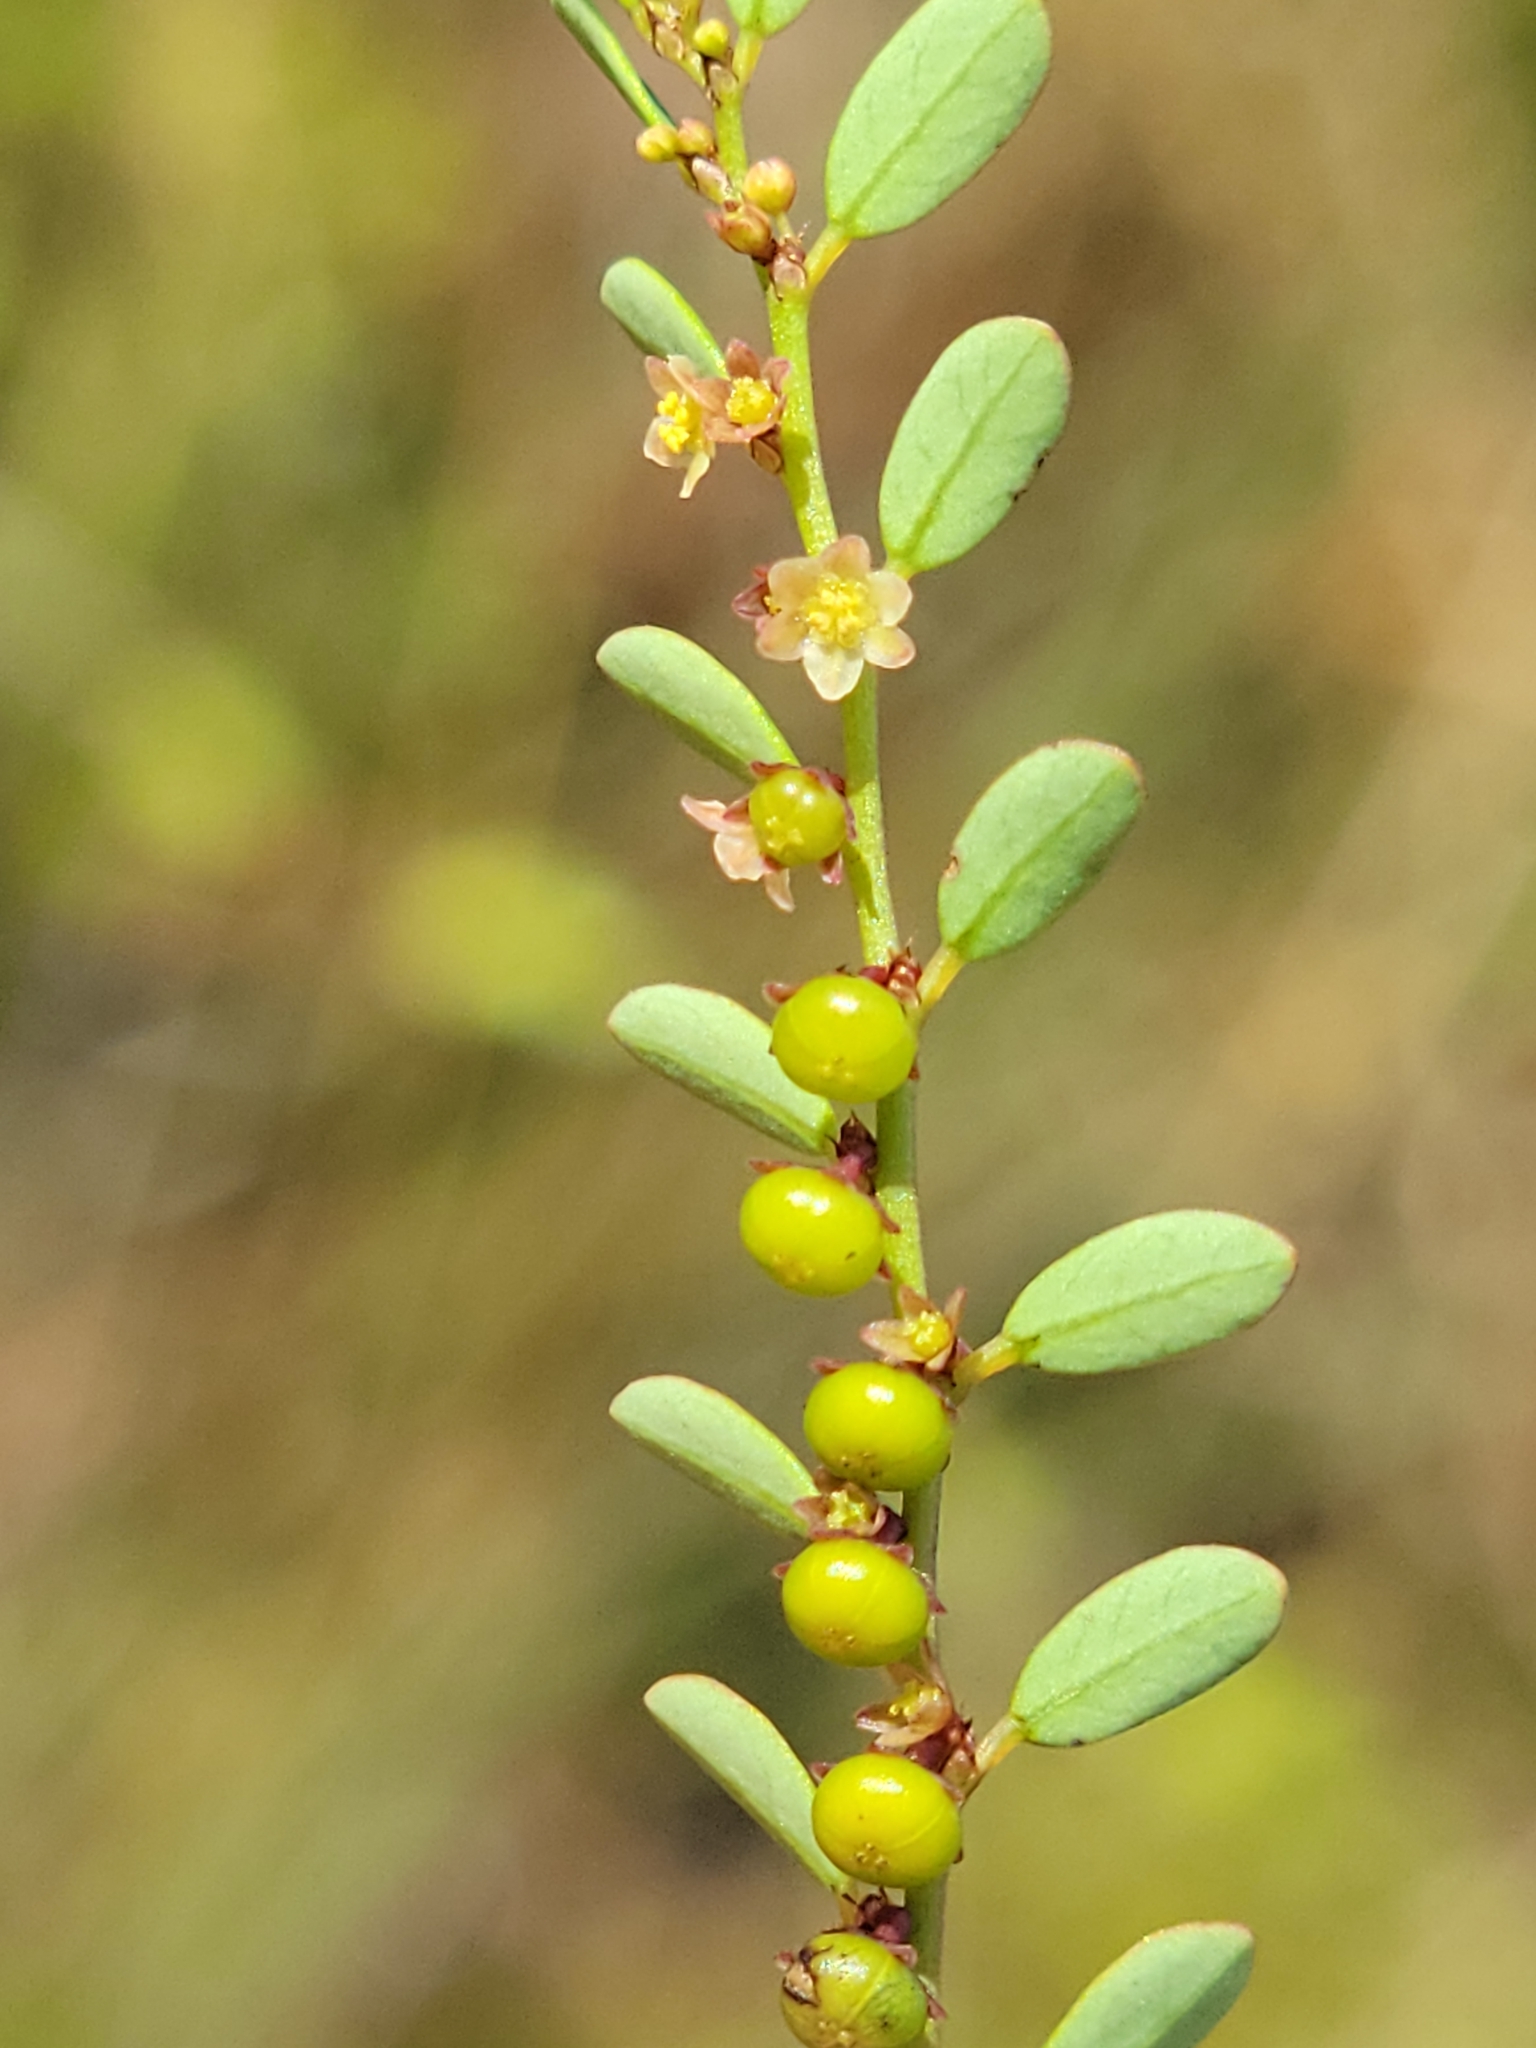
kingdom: Plantae
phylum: Tracheophyta
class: Magnoliopsida
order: Malpighiales
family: Phyllanthaceae
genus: Phyllanthus
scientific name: Phyllanthus caroliniensis
